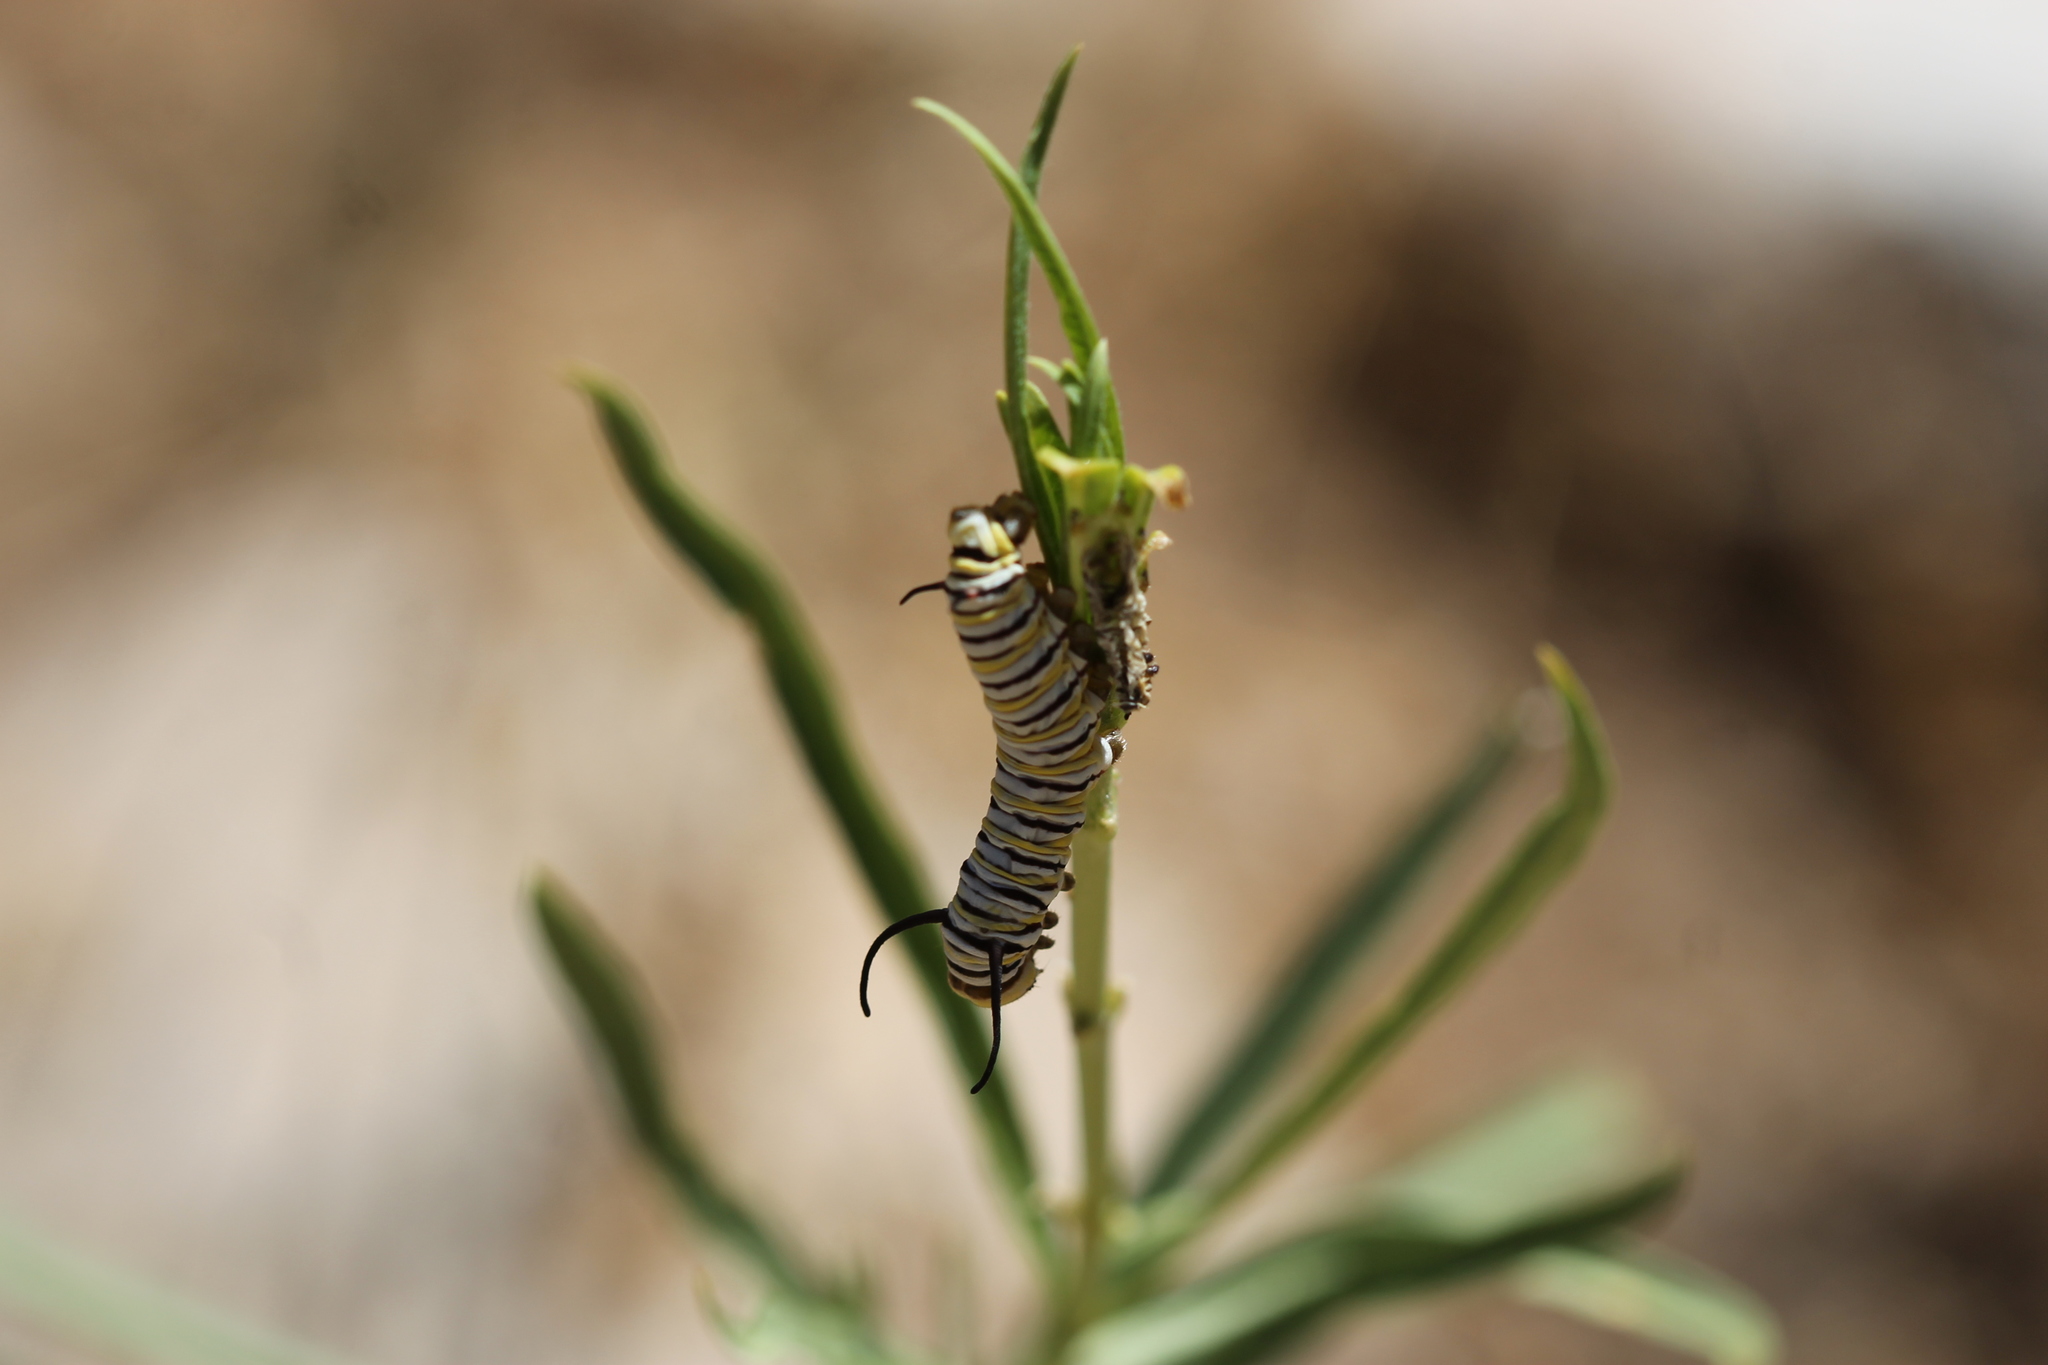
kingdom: Animalia
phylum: Arthropoda
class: Insecta
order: Lepidoptera
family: Nymphalidae
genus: Danaus
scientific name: Danaus plexippus
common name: Monarch
